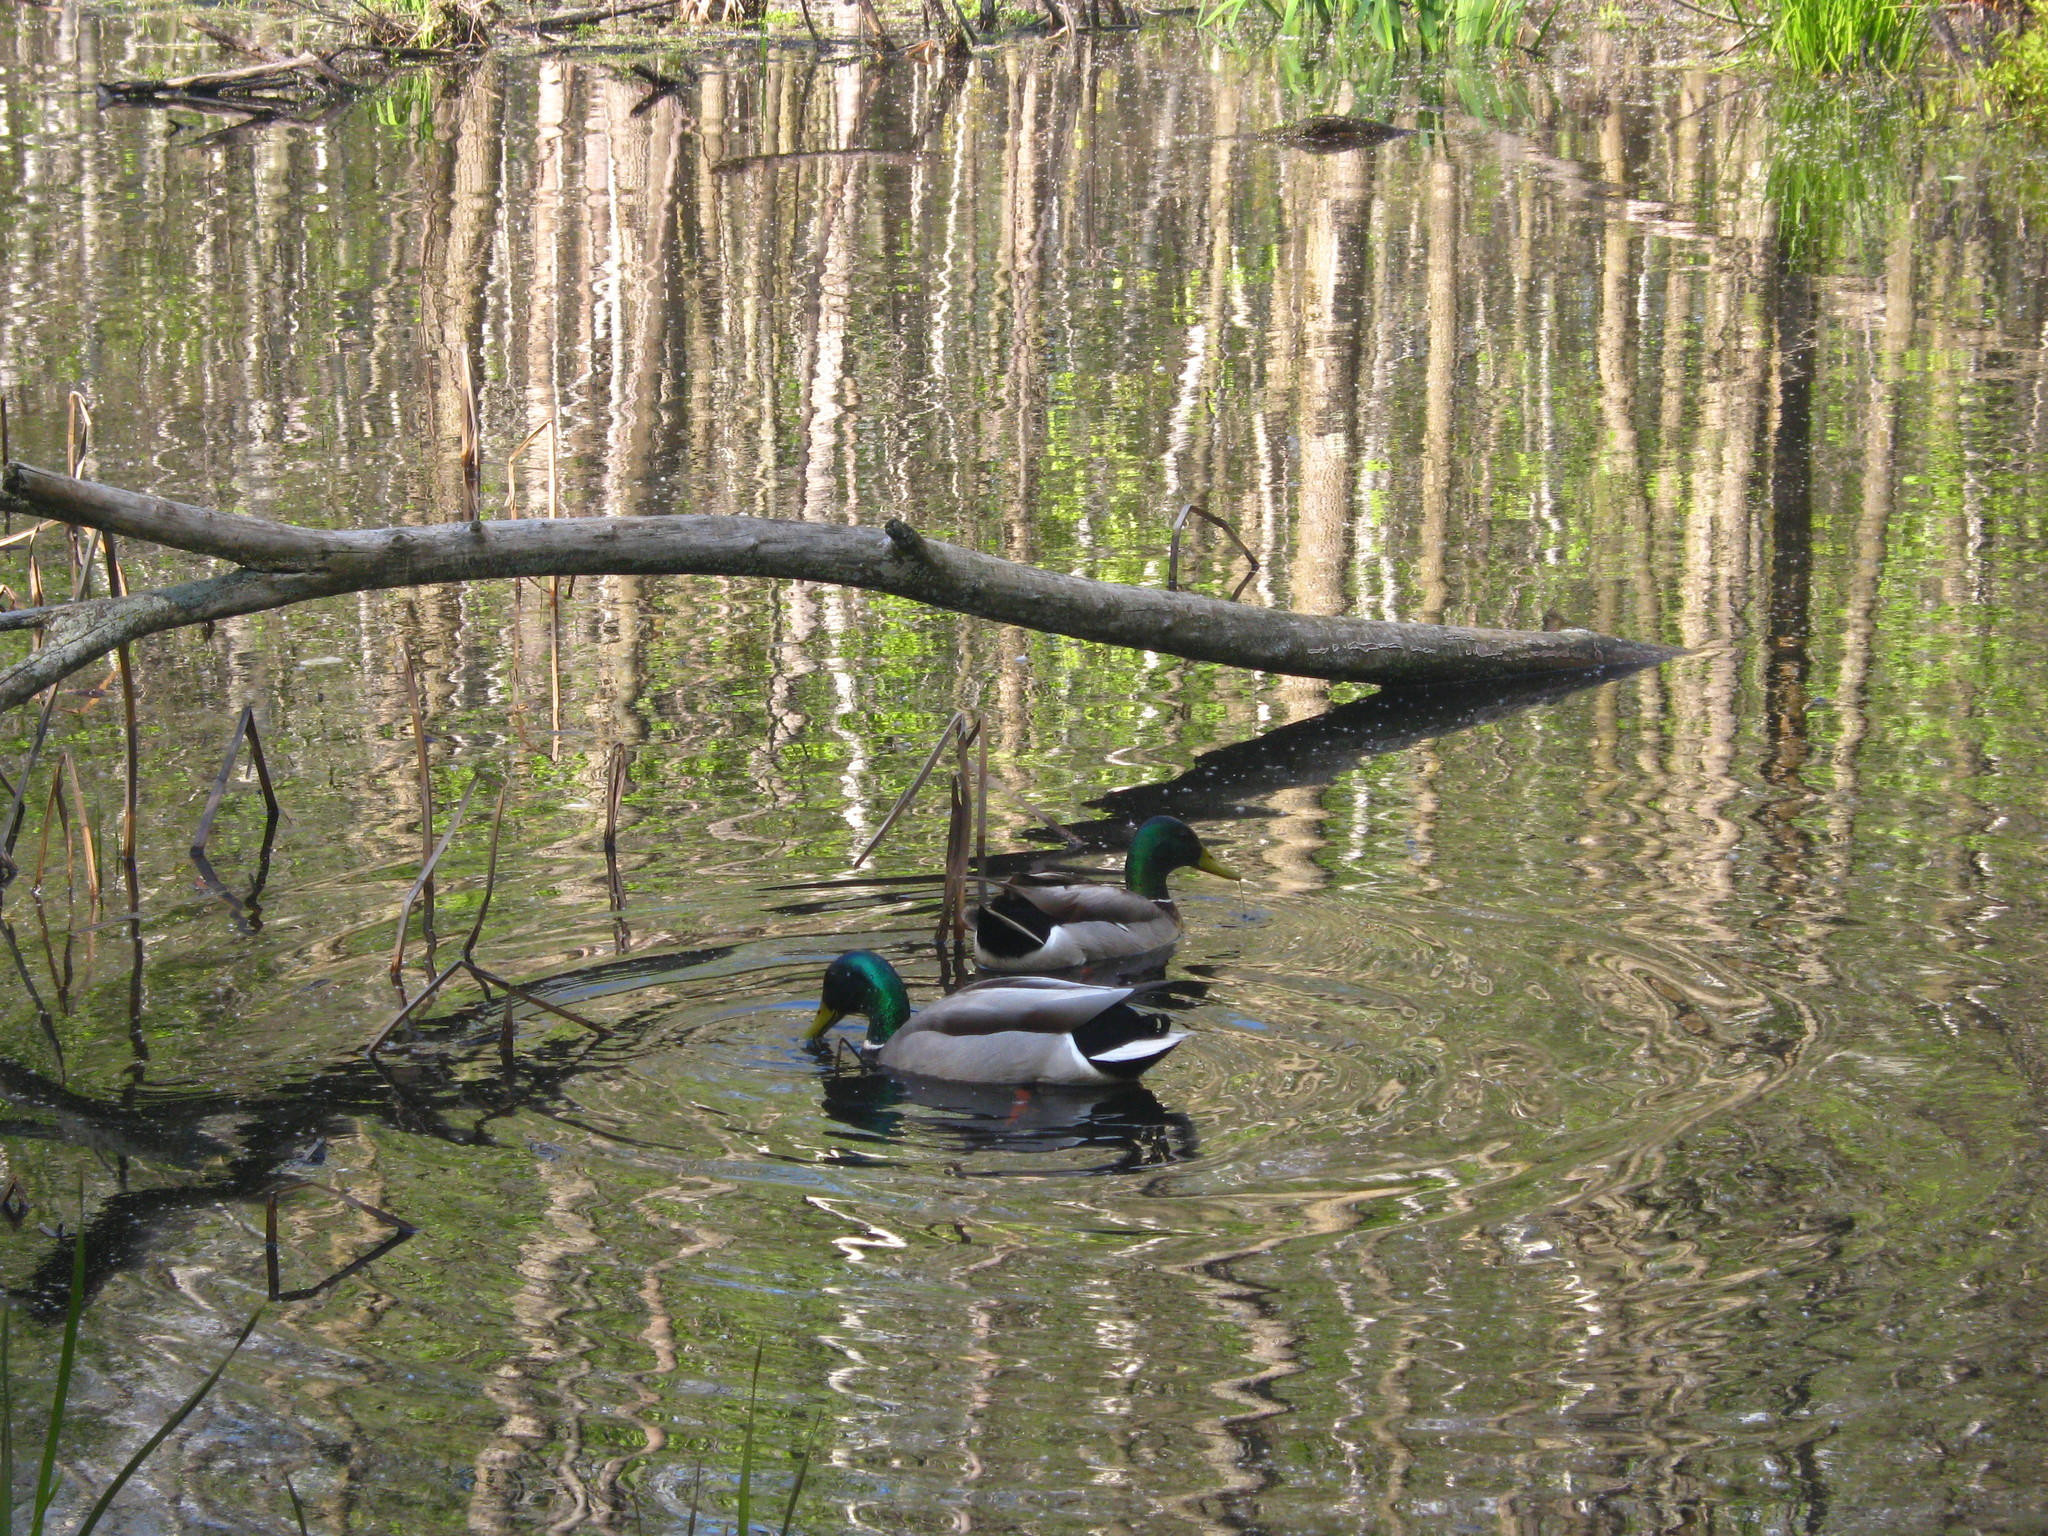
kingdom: Animalia
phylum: Chordata
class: Aves
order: Anseriformes
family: Anatidae
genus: Anas
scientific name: Anas platyrhynchos
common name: Mallard
